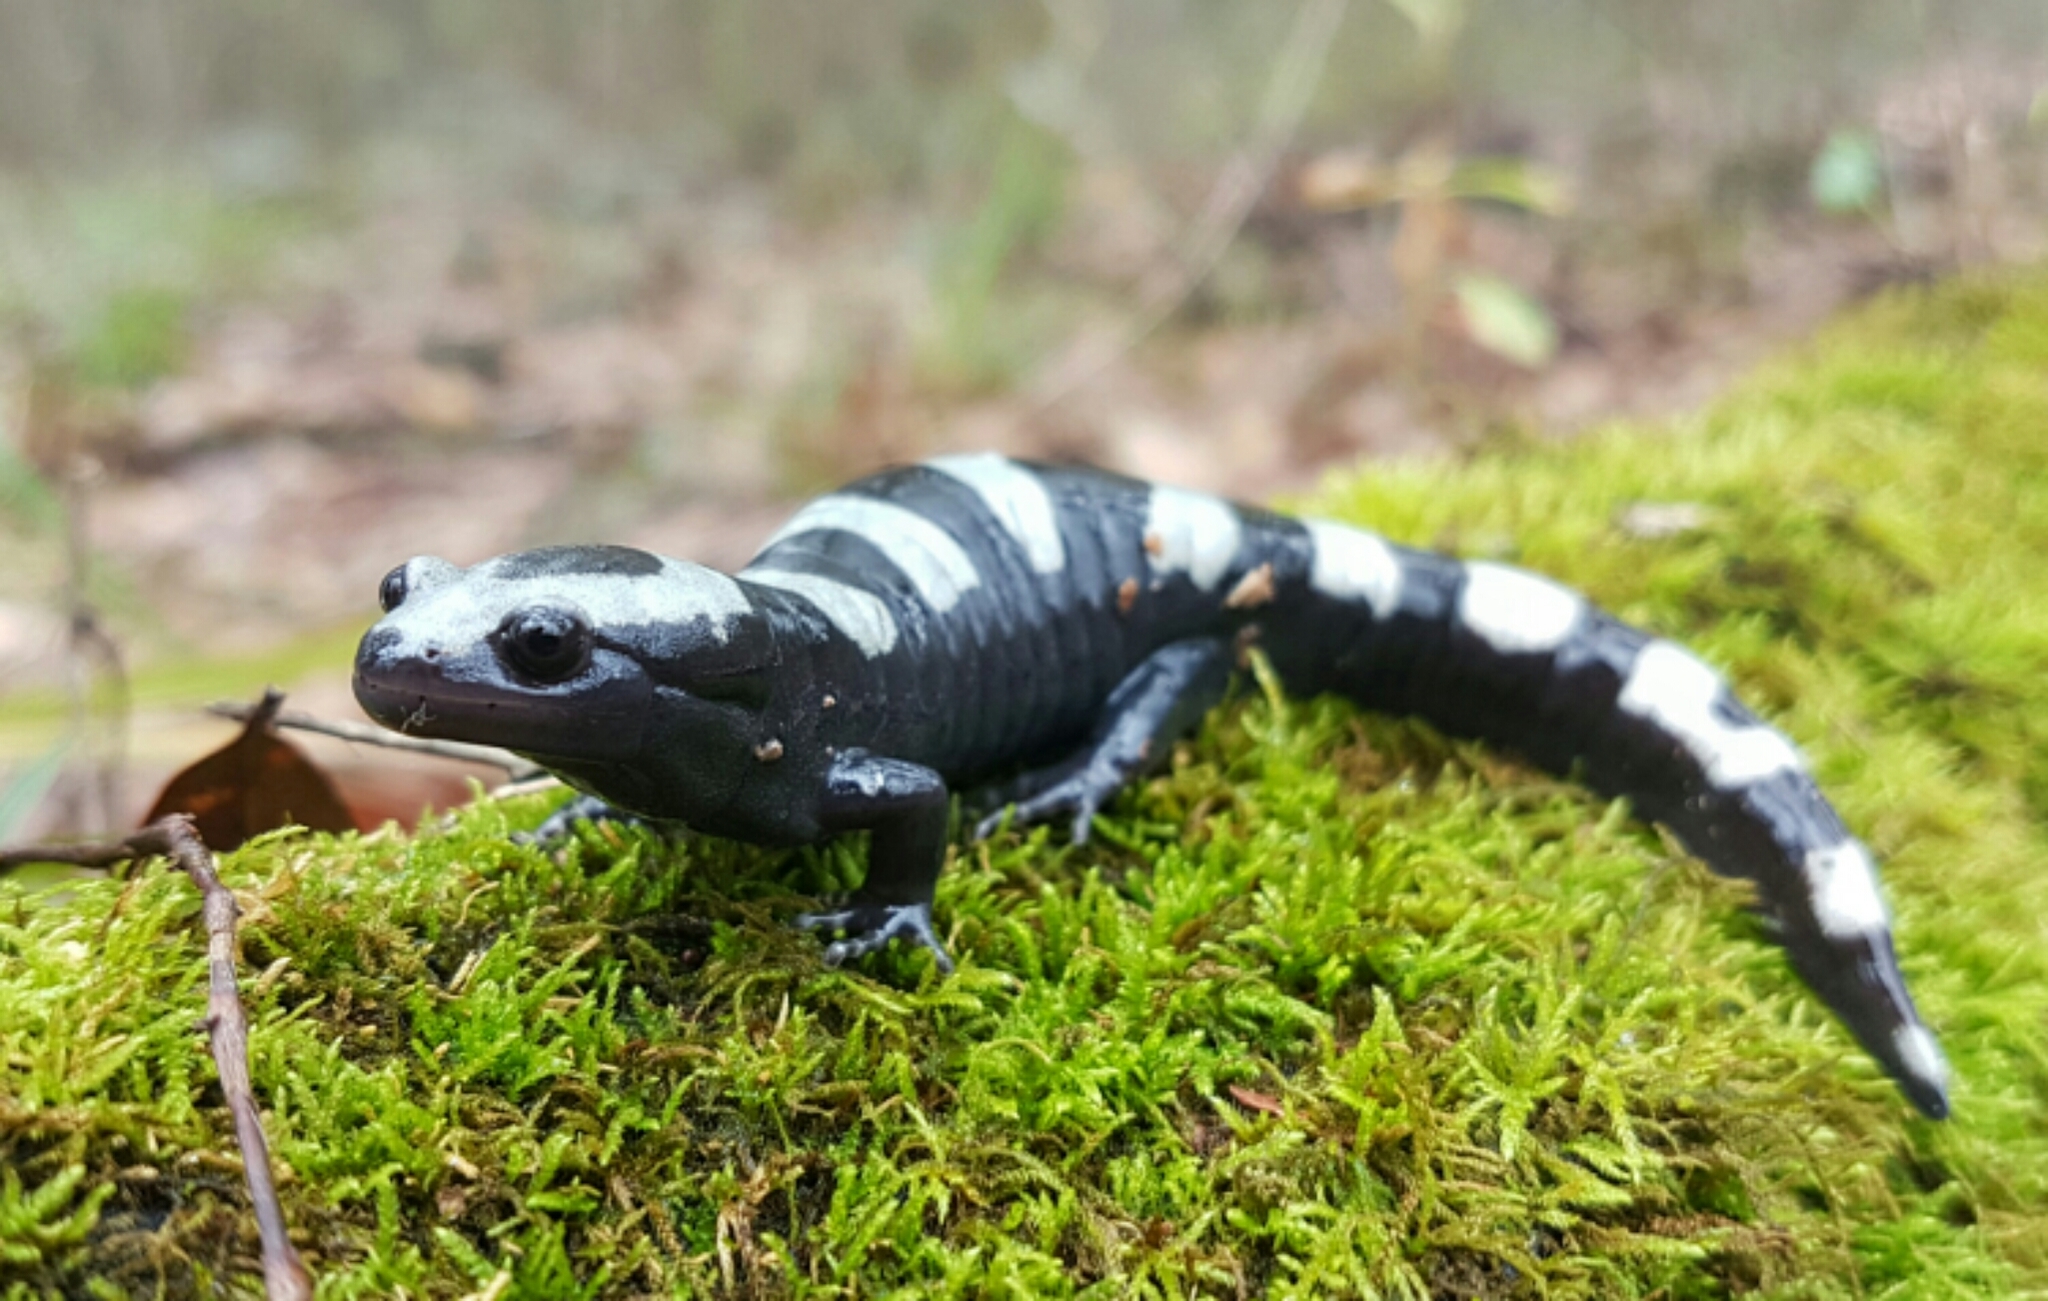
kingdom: Animalia
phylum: Chordata
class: Amphibia
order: Caudata
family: Ambystomatidae
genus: Ambystoma
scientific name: Ambystoma opacum
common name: Marbled salamander
